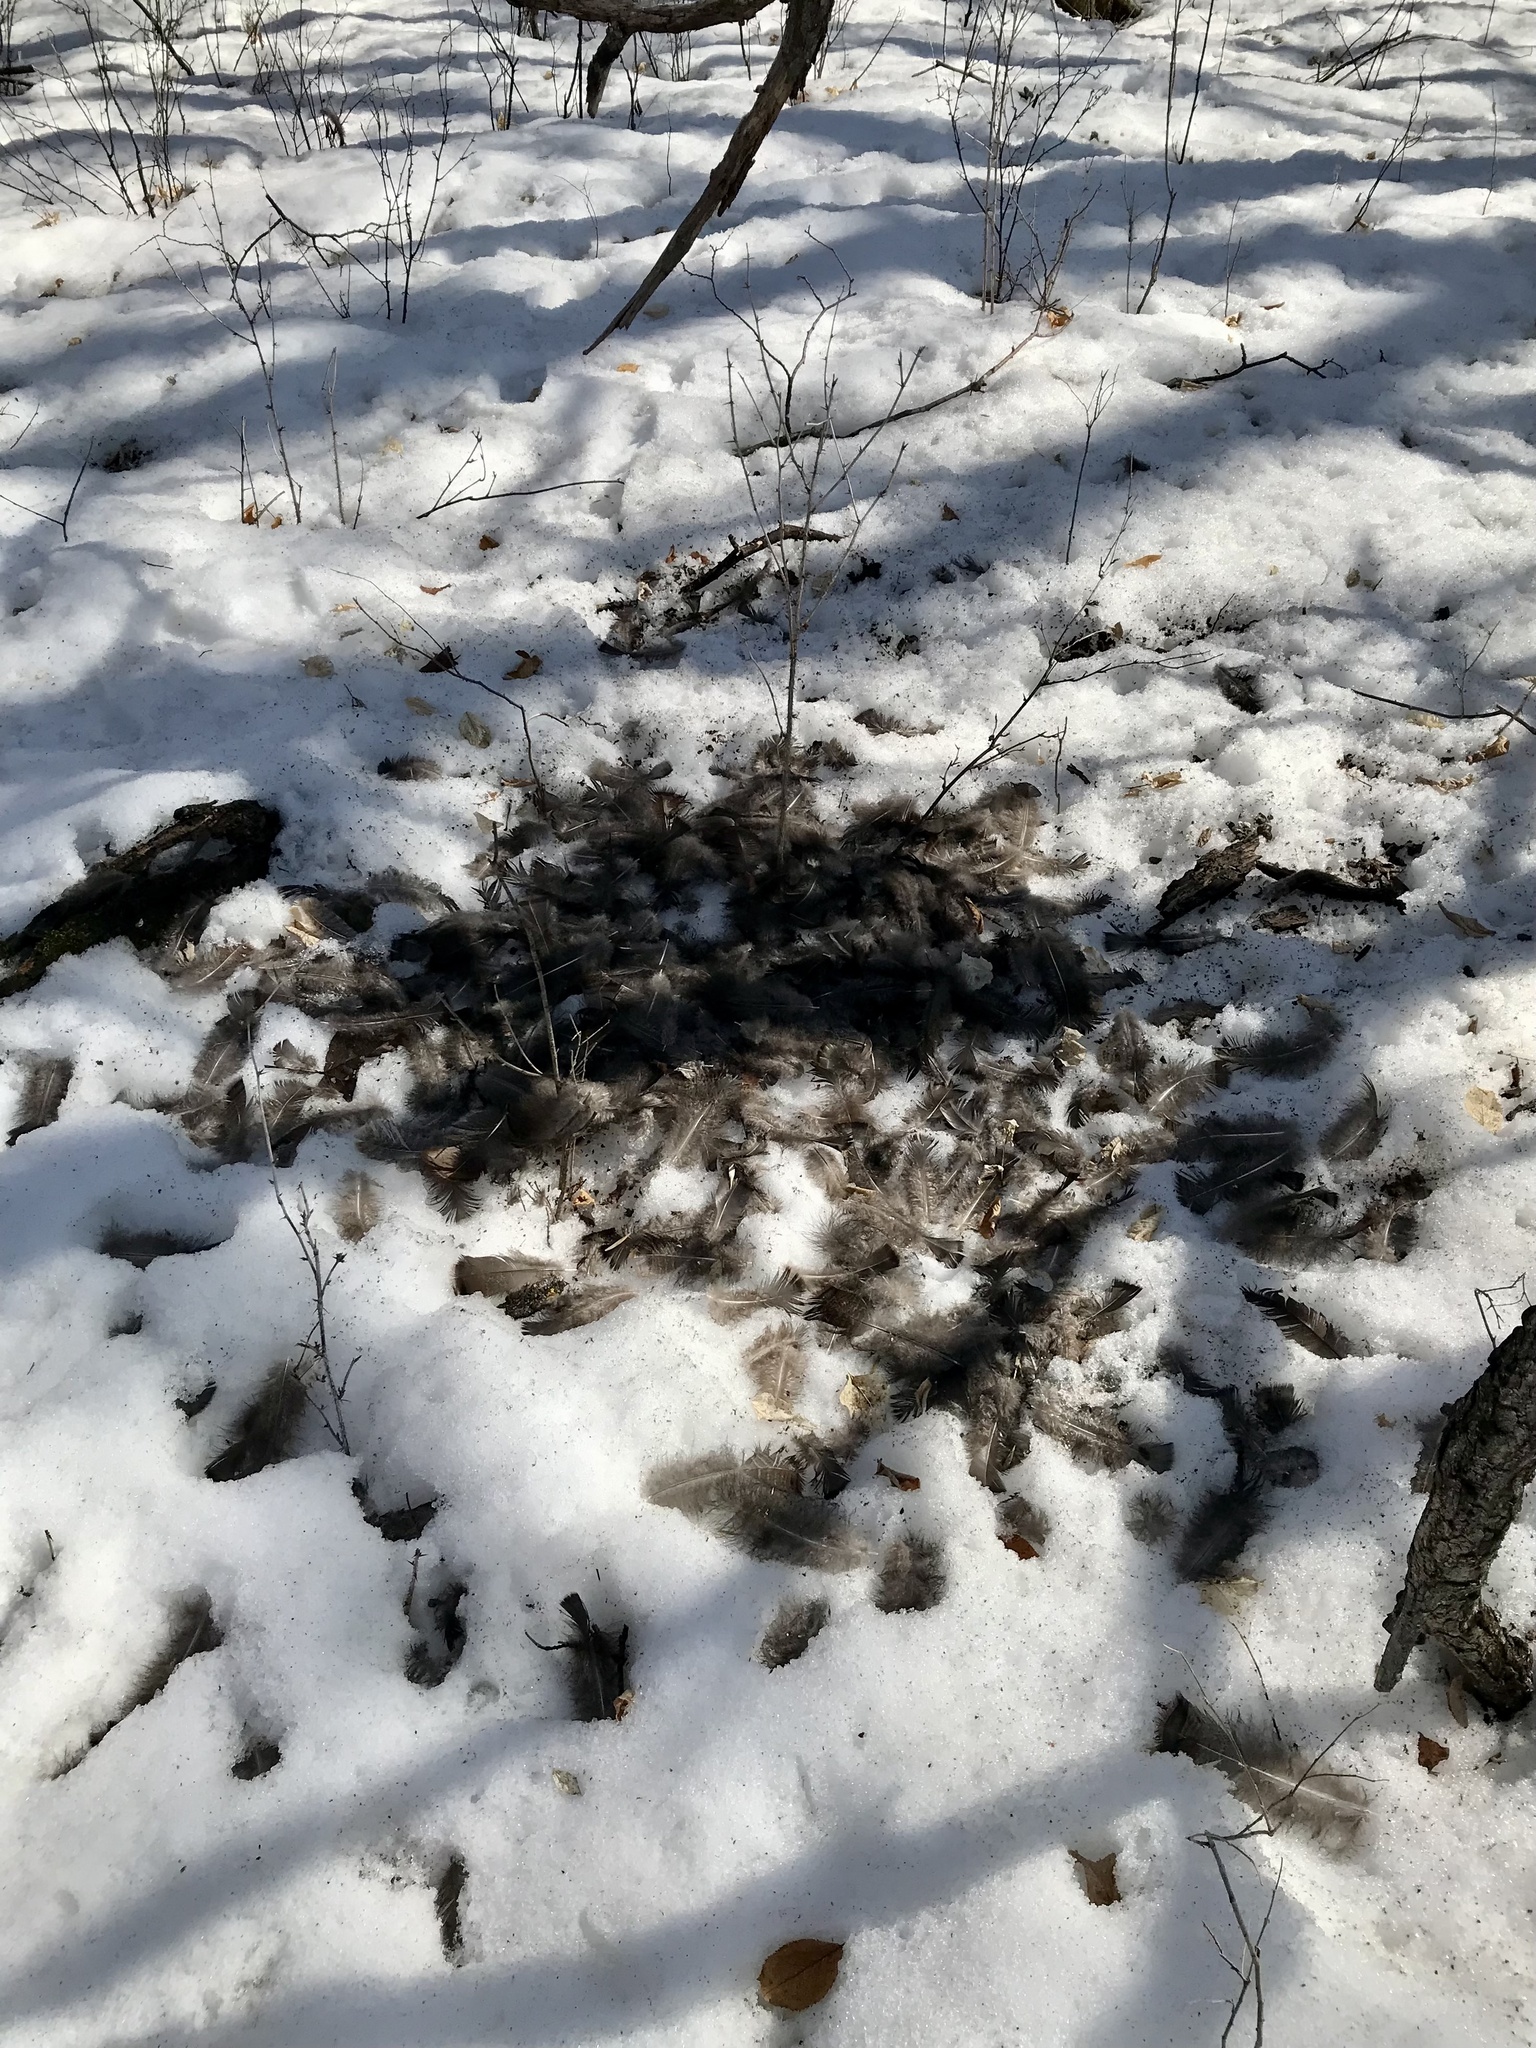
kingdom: Animalia
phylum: Chordata
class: Aves
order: Galliformes
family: Phasianidae
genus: Meleagris
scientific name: Meleagris gallopavo
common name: Wild turkey
